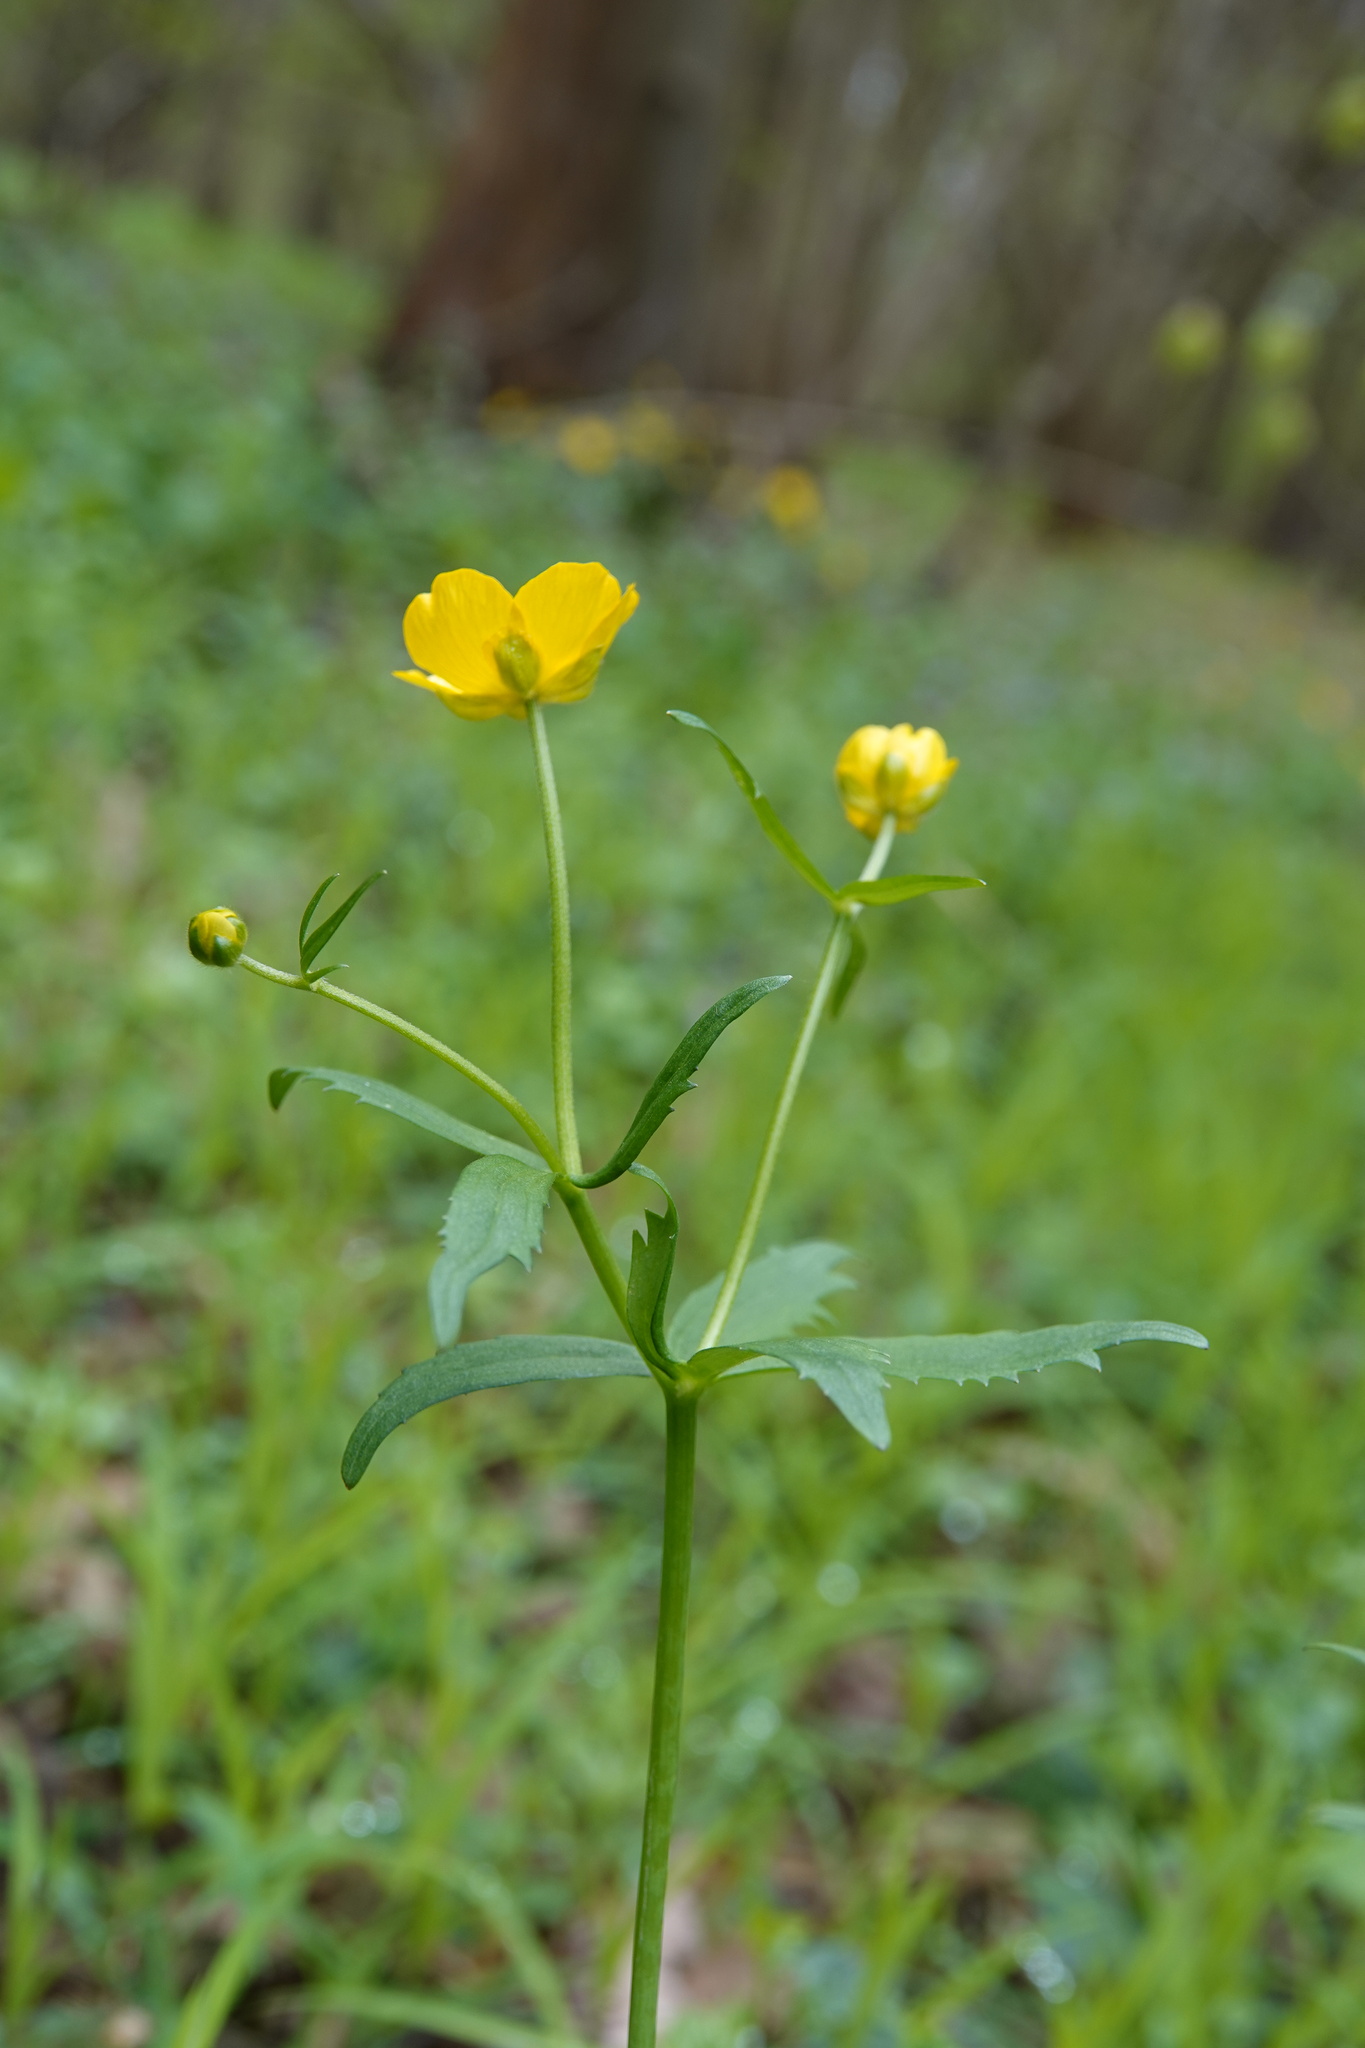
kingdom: Plantae
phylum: Tracheophyta
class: Magnoliopsida
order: Ranunculales
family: Ranunculaceae
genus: Ranunculus
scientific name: Ranunculus cassubicus
